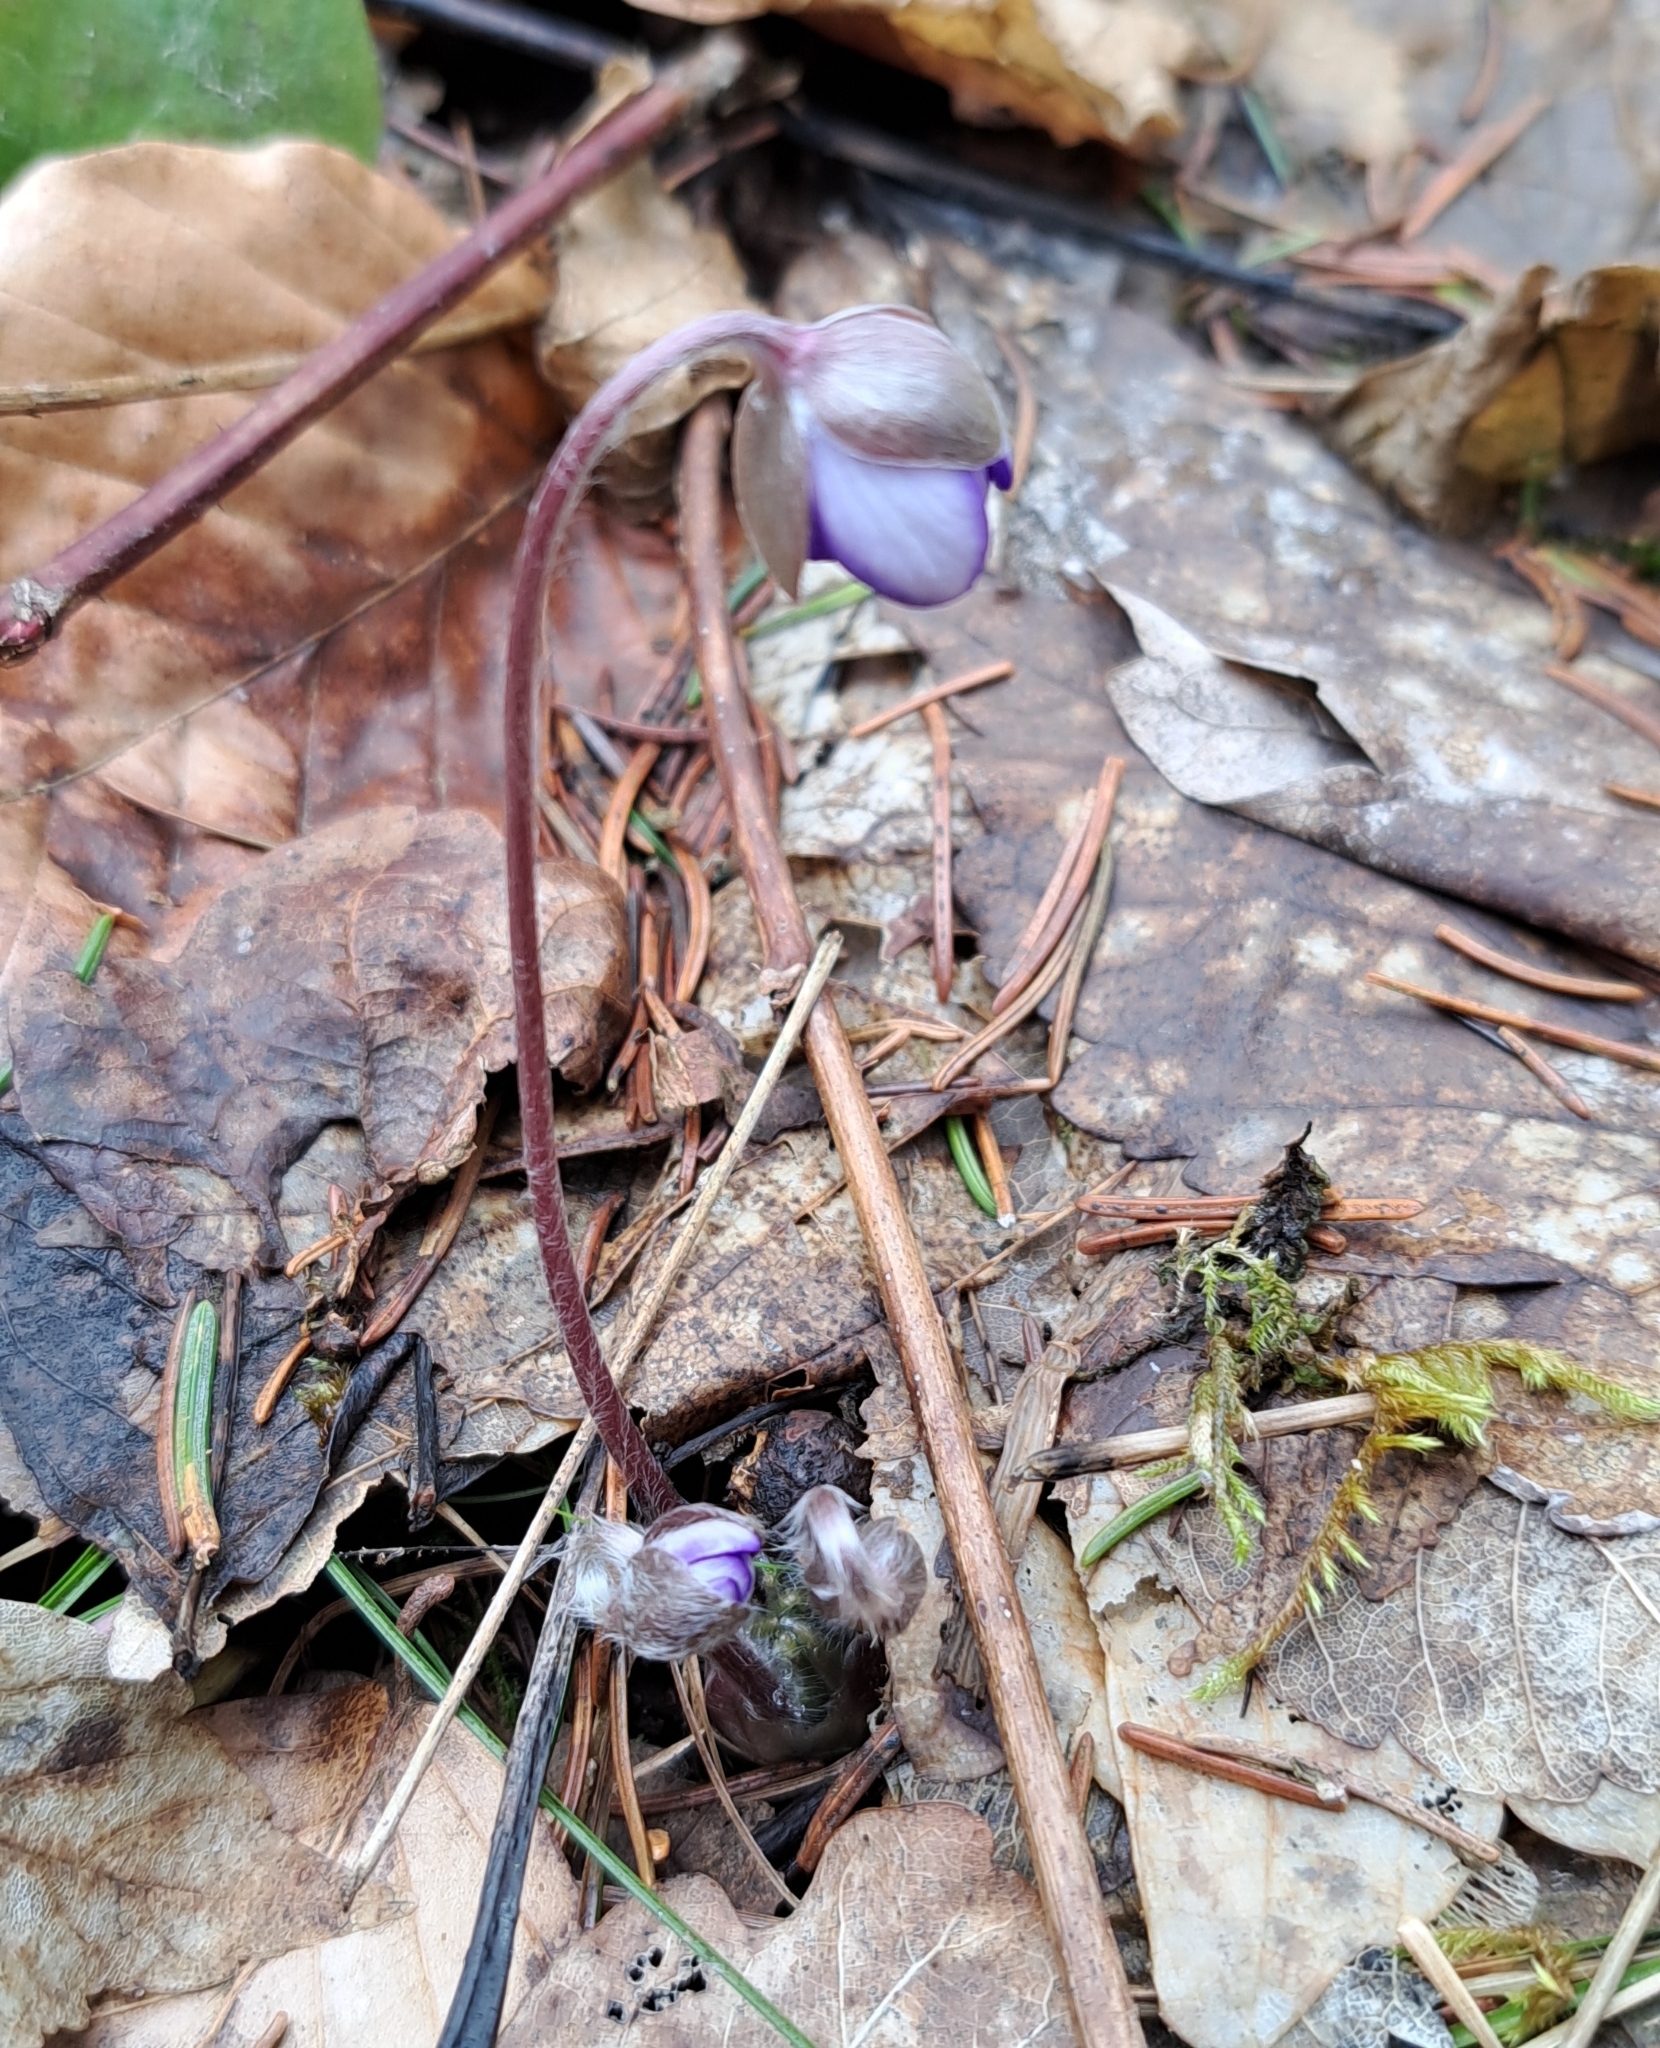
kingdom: Plantae
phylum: Tracheophyta
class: Magnoliopsida
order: Ranunculales
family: Ranunculaceae
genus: Hepatica
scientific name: Hepatica nobilis
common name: Liverleaf
